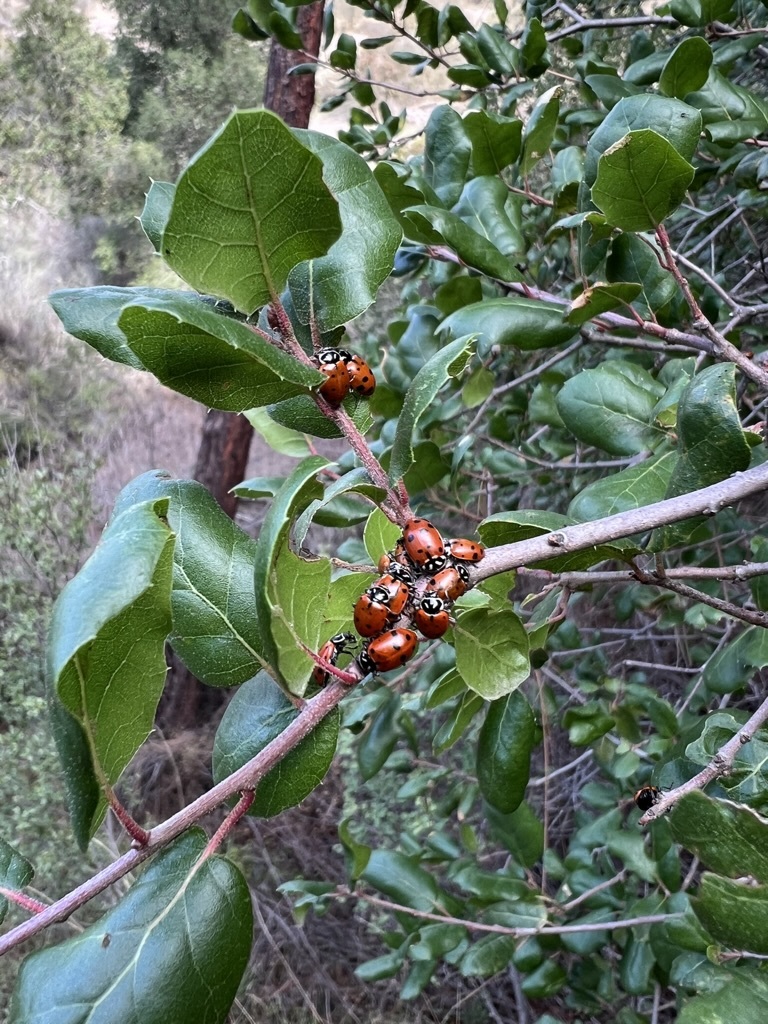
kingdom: Animalia
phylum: Arthropoda
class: Insecta
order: Coleoptera
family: Coccinellidae
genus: Hippodamia
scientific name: Hippodamia convergens
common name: Convergent lady beetle
